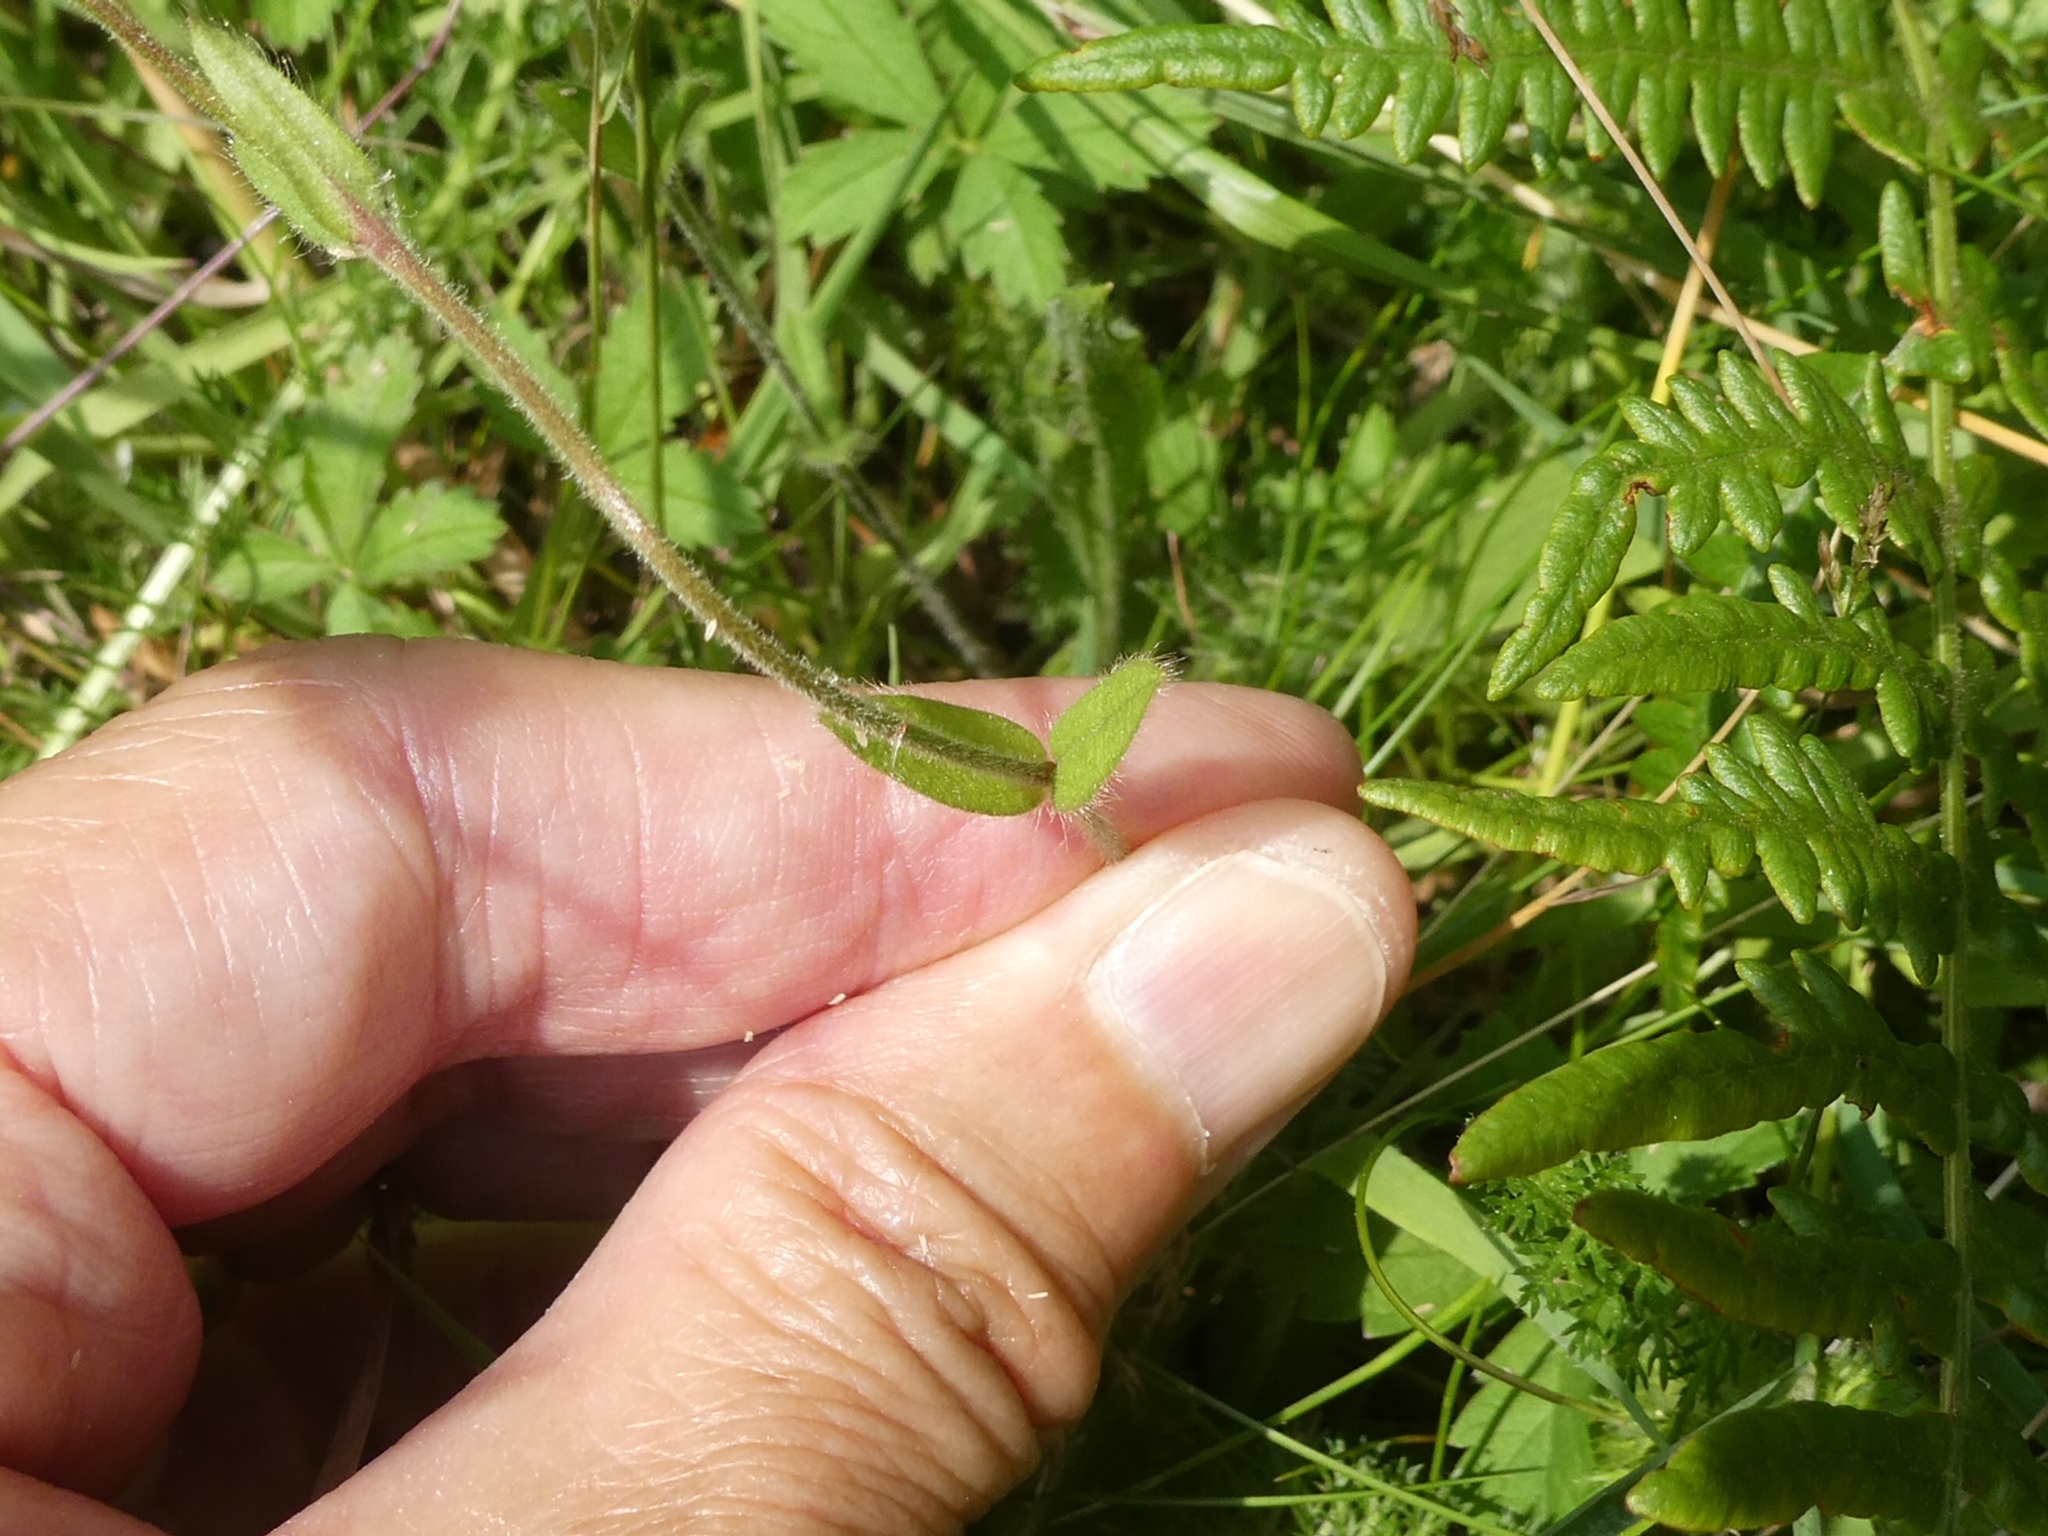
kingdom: Plantae
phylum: Tracheophyta
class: Magnoliopsida
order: Caryophyllales
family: Caryophyllaceae
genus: Cerastium
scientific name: Cerastium fontanum
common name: Common mouse-ear
